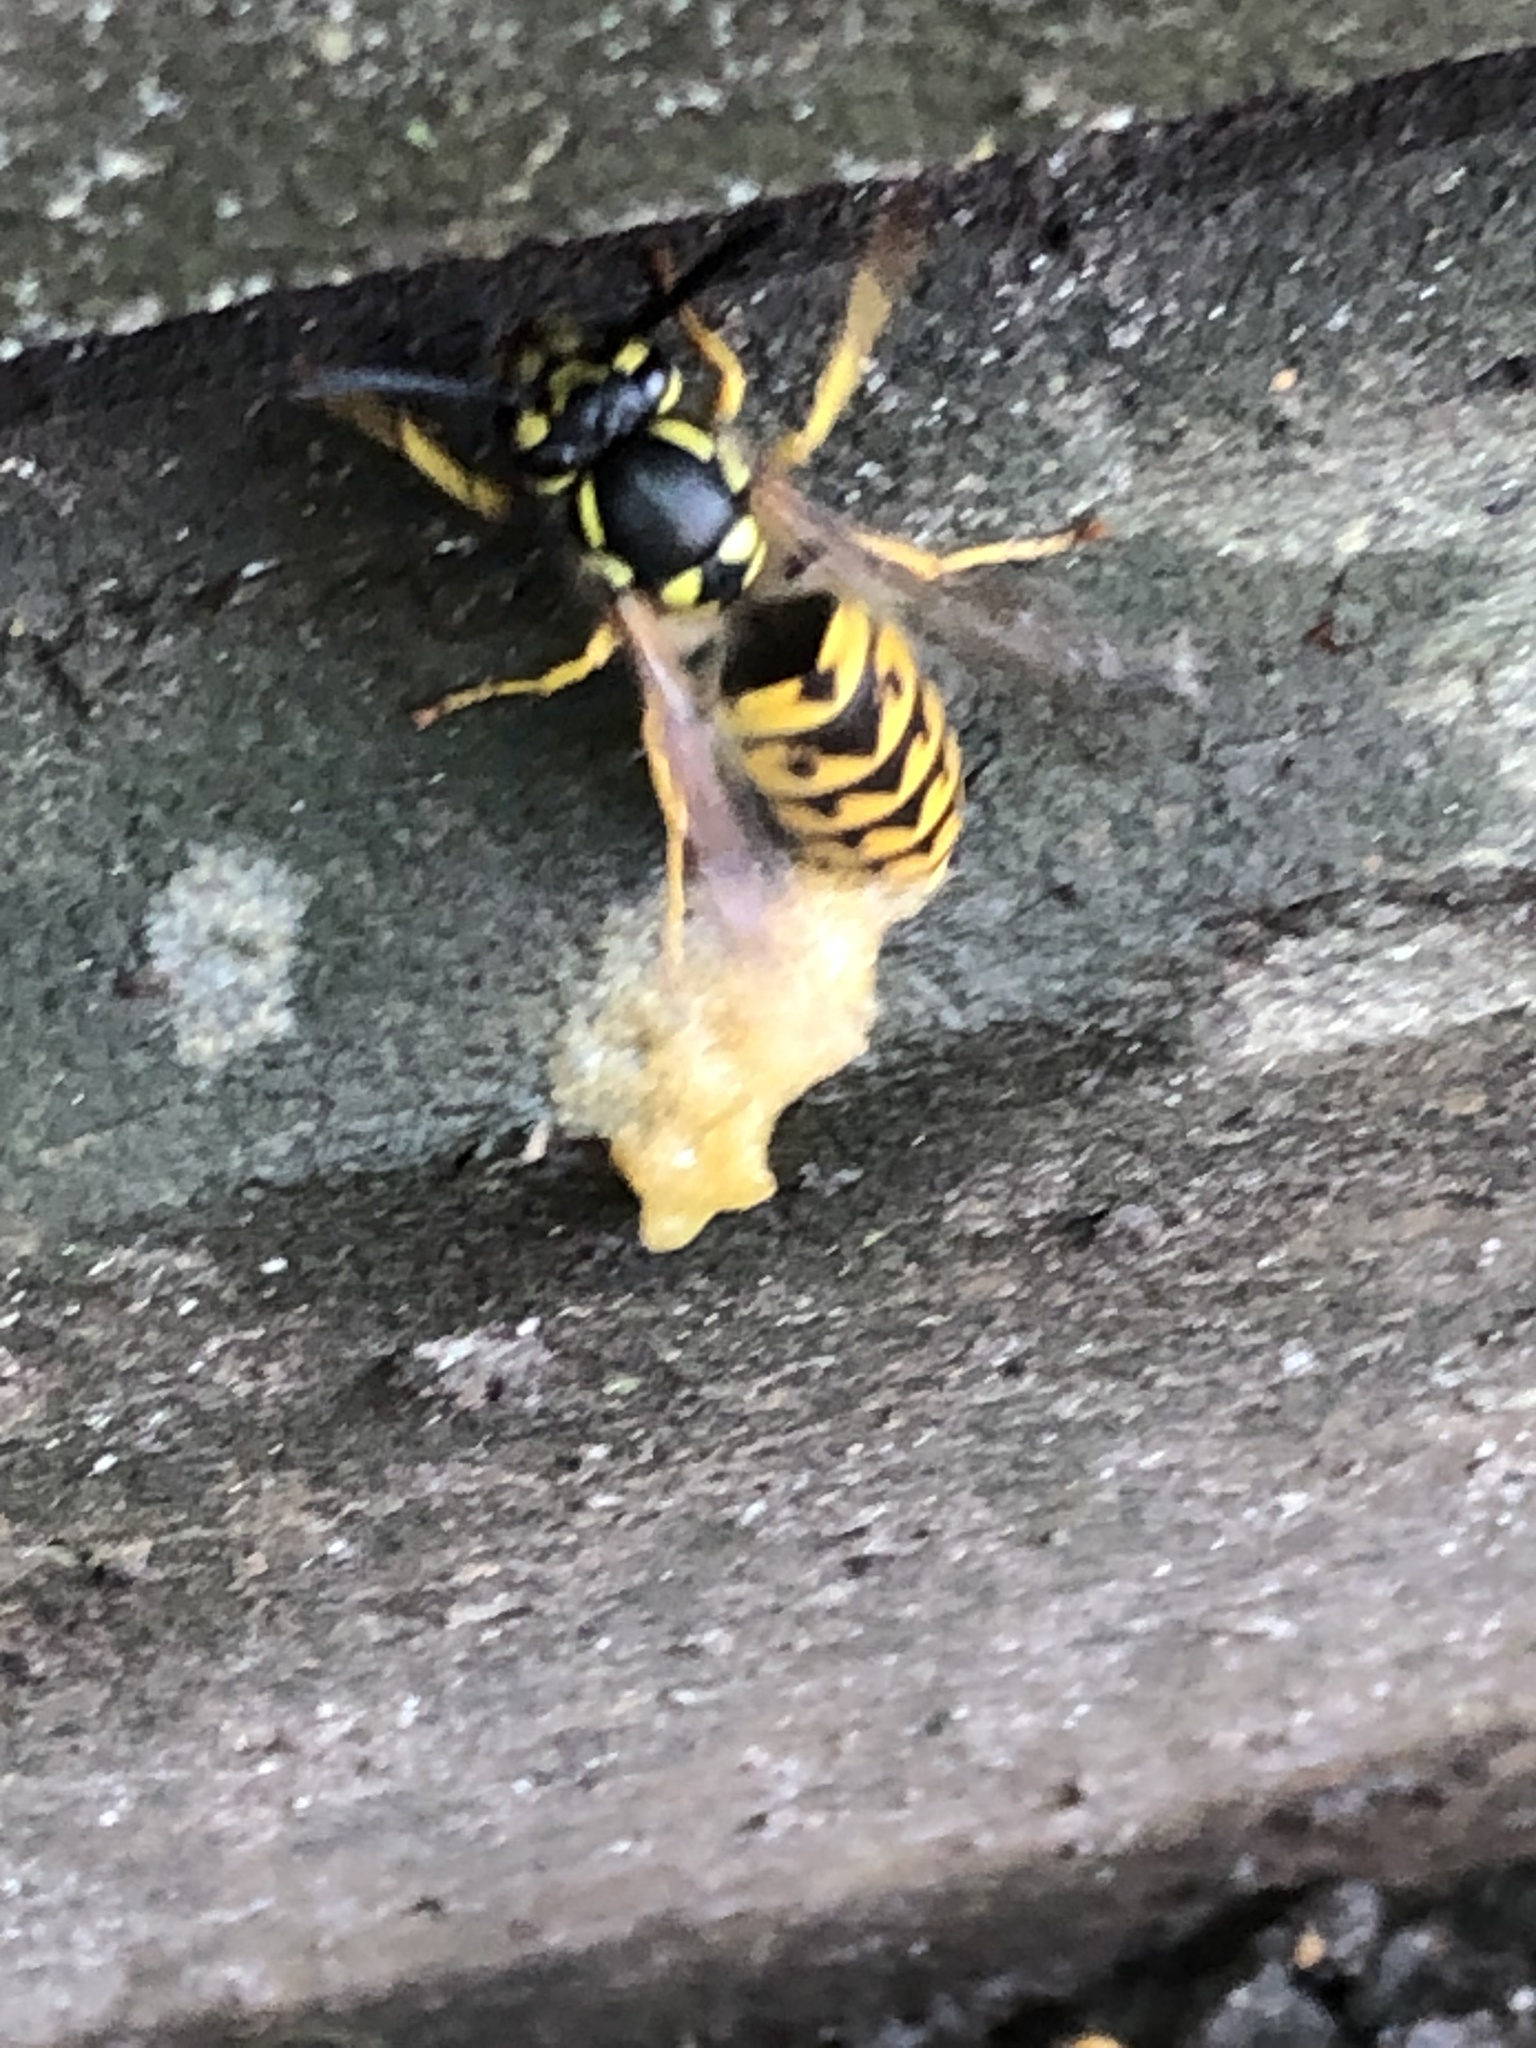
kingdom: Animalia
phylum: Arthropoda
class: Insecta
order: Hymenoptera
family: Vespidae
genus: Vespula
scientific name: Vespula germanica
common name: German wasp
